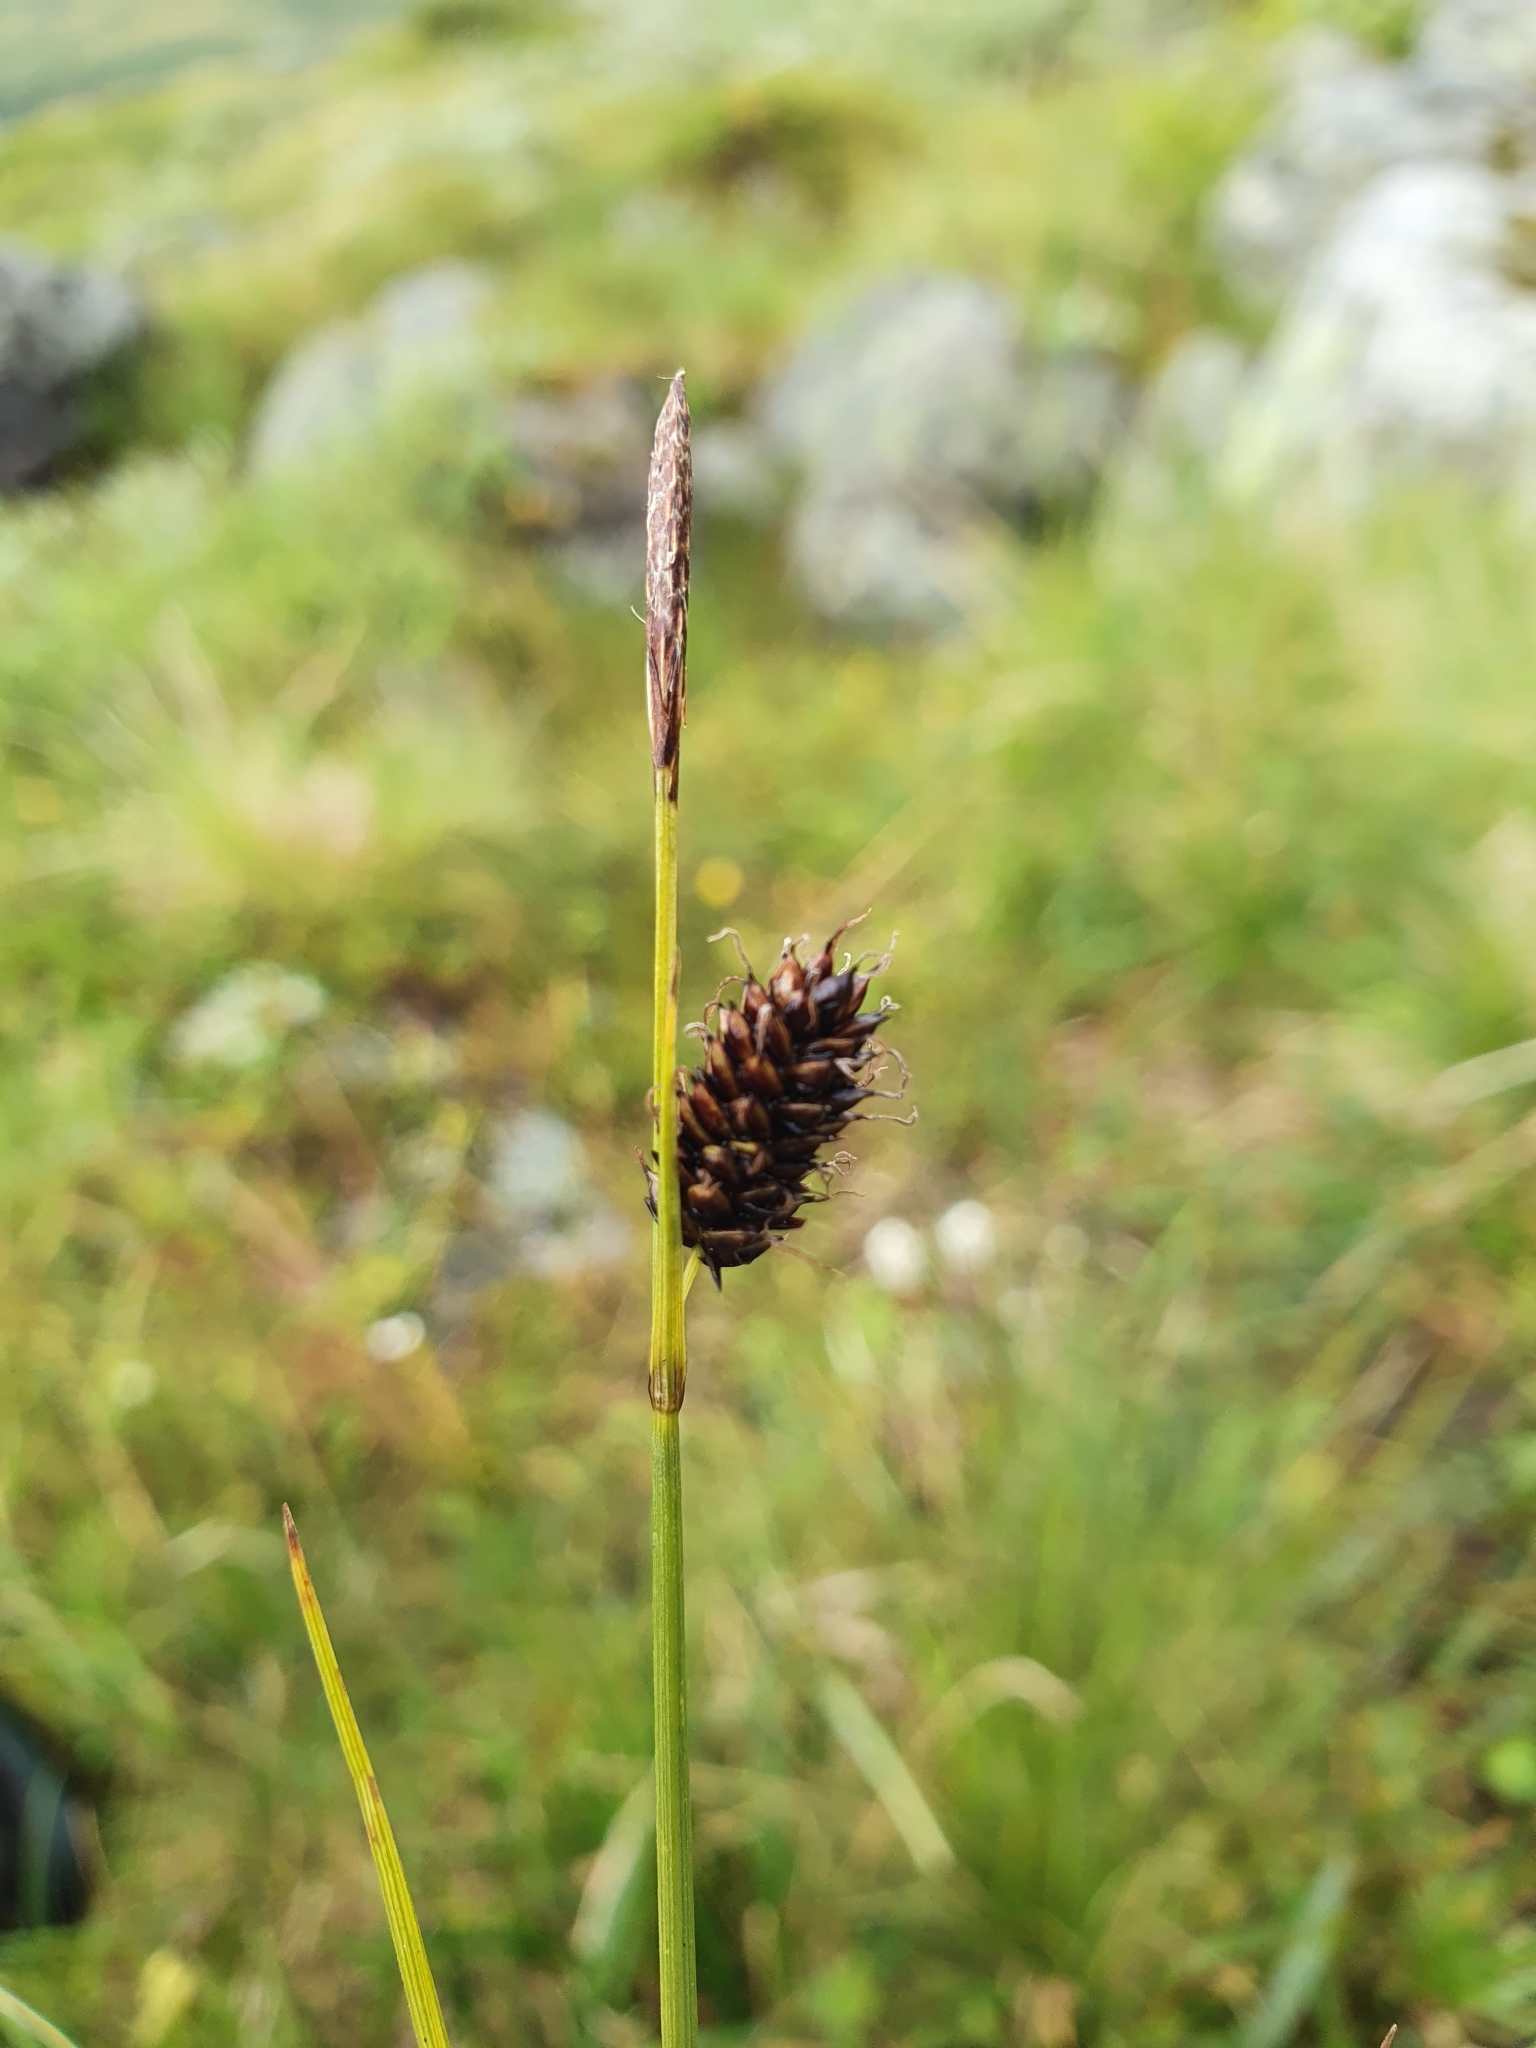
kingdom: Plantae
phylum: Tracheophyta
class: Liliopsida
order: Poales
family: Cyperaceae
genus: Carex
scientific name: Carex saxatilis
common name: Russet sedge
